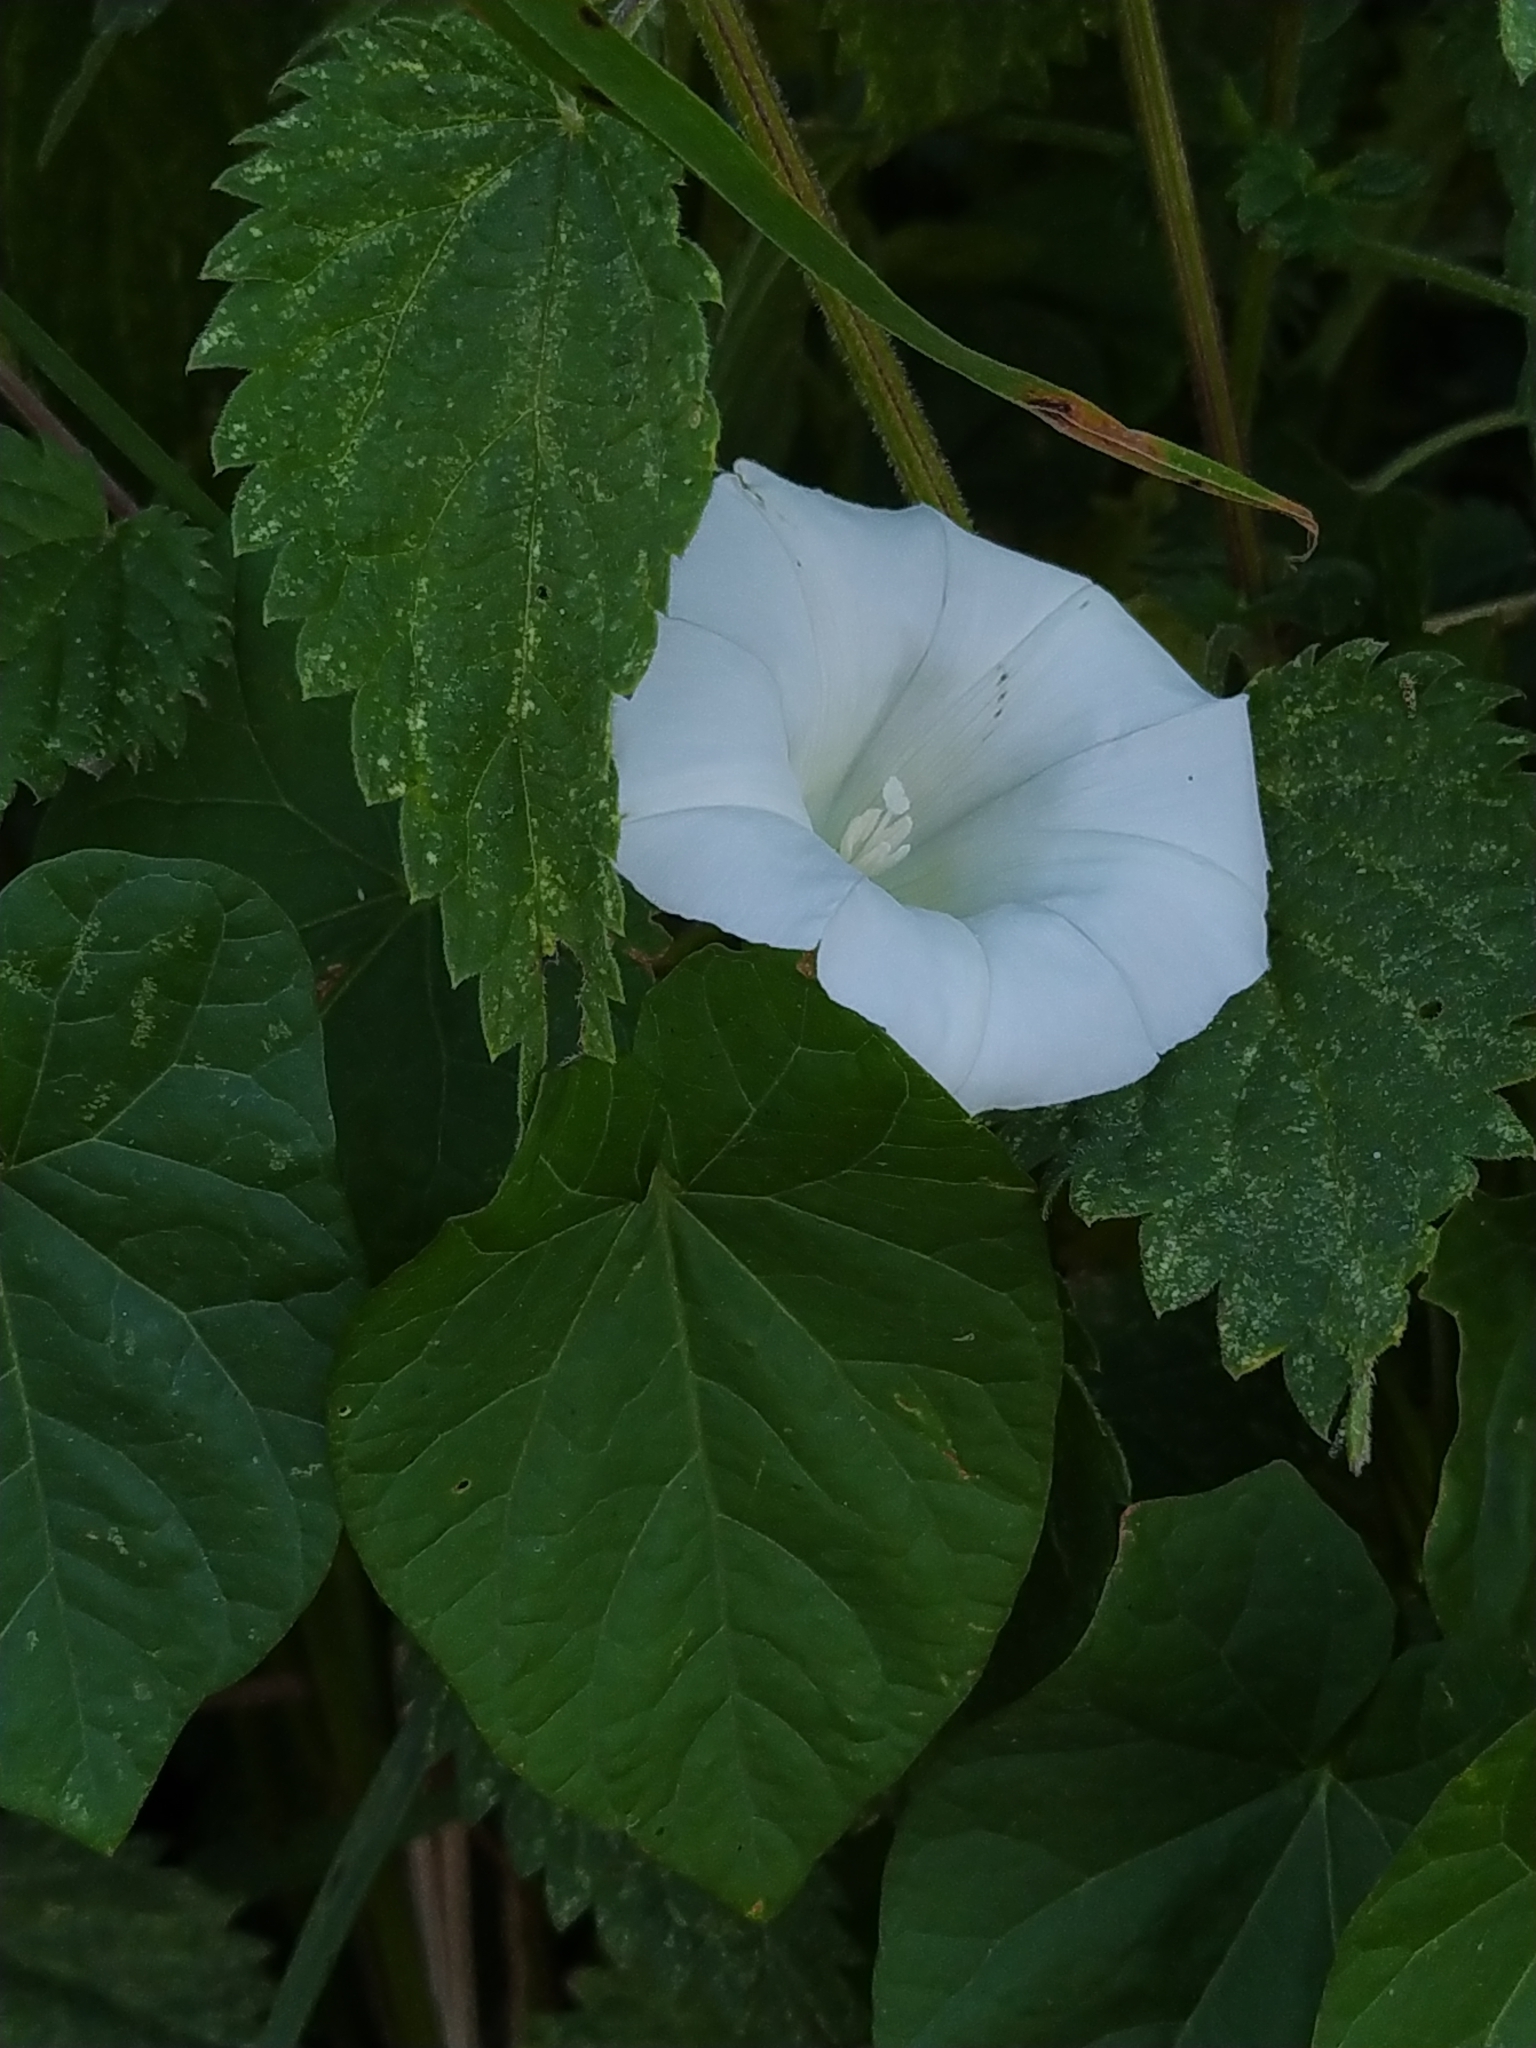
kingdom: Plantae
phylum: Tracheophyta
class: Magnoliopsida
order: Solanales
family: Convolvulaceae
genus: Calystegia
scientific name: Calystegia sepium
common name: Hedge bindweed
